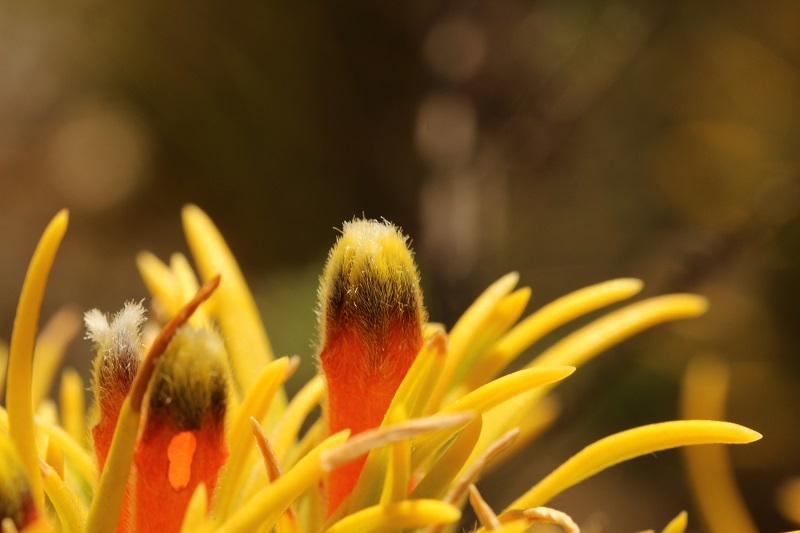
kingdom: Plantae
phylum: Tracheophyta
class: Magnoliopsida
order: Lamiales
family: Stilbaceae
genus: Retzia
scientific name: Retzia capensis
